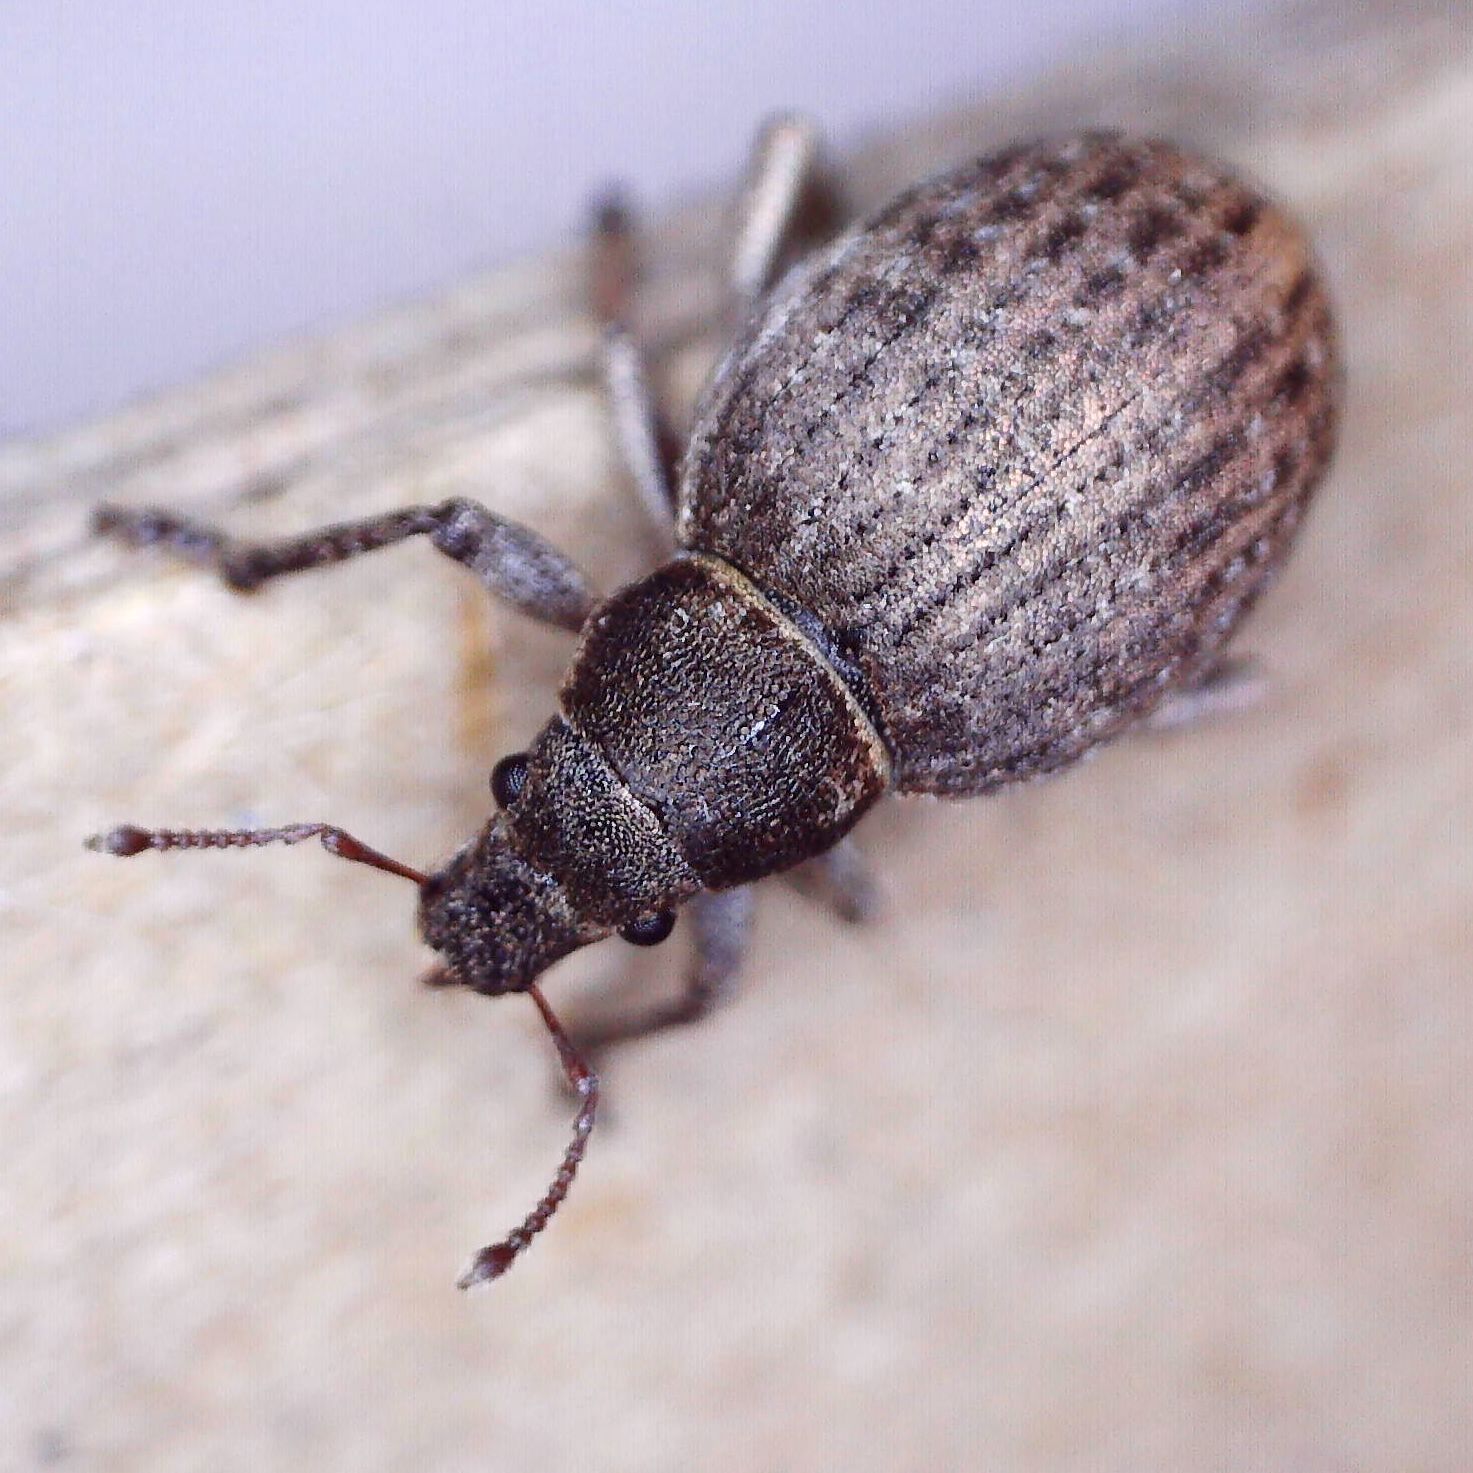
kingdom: Animalia
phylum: Arthropoda
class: Insecta
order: Coleoptera
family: Curculionidae
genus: Attactagenus
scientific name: Attactagenus plumbeus
